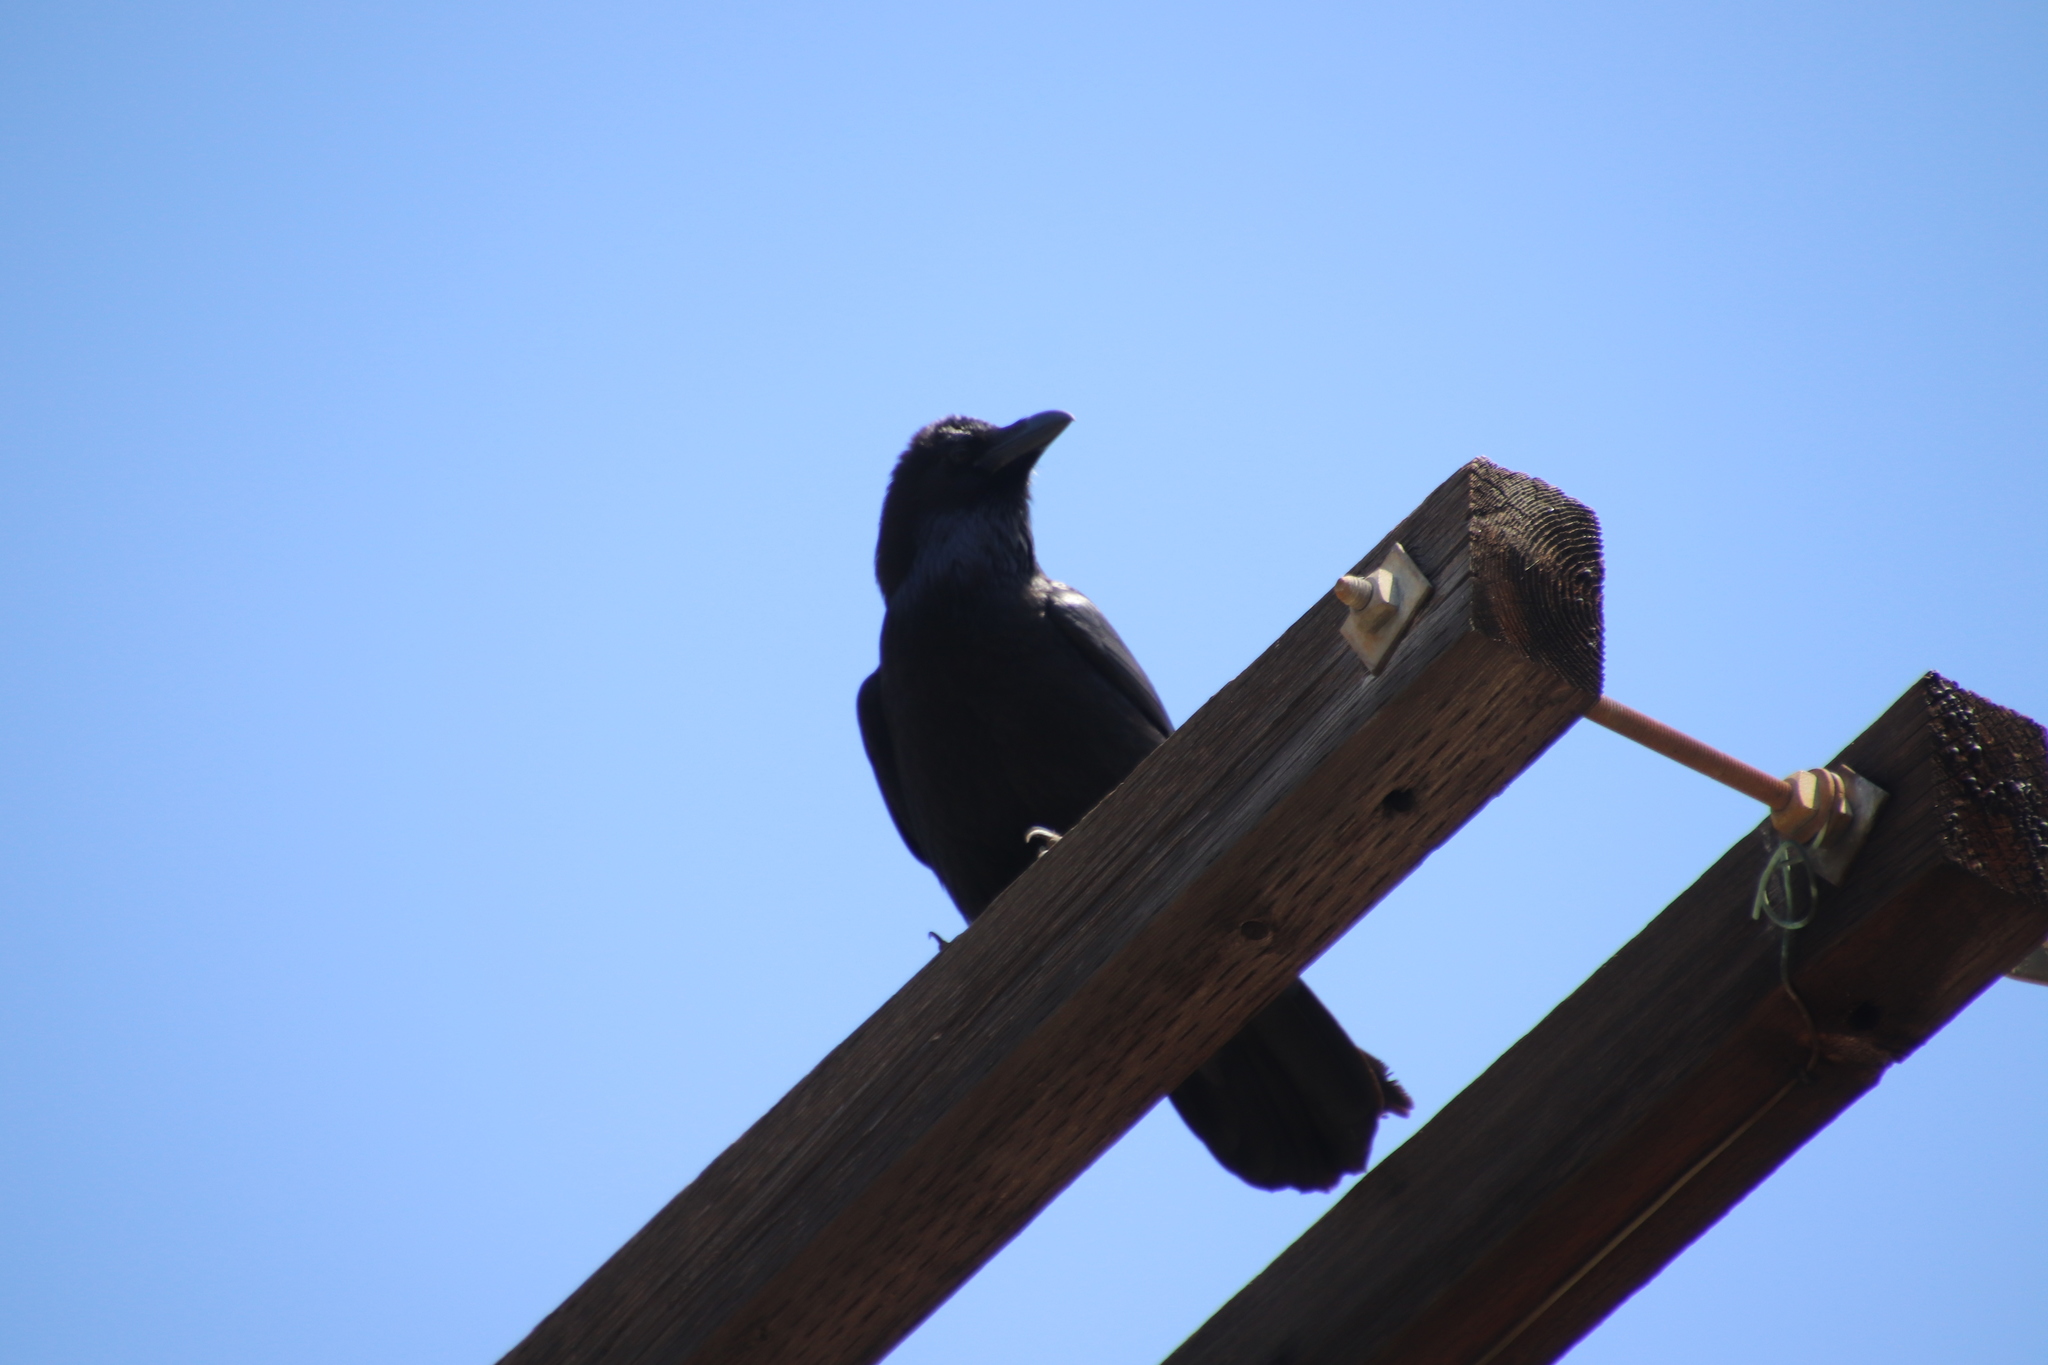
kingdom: Animalia
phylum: Chordata
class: Aves
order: Passeriformes
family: Corvidae
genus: Corvus
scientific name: Corvus corax
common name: Common raven
